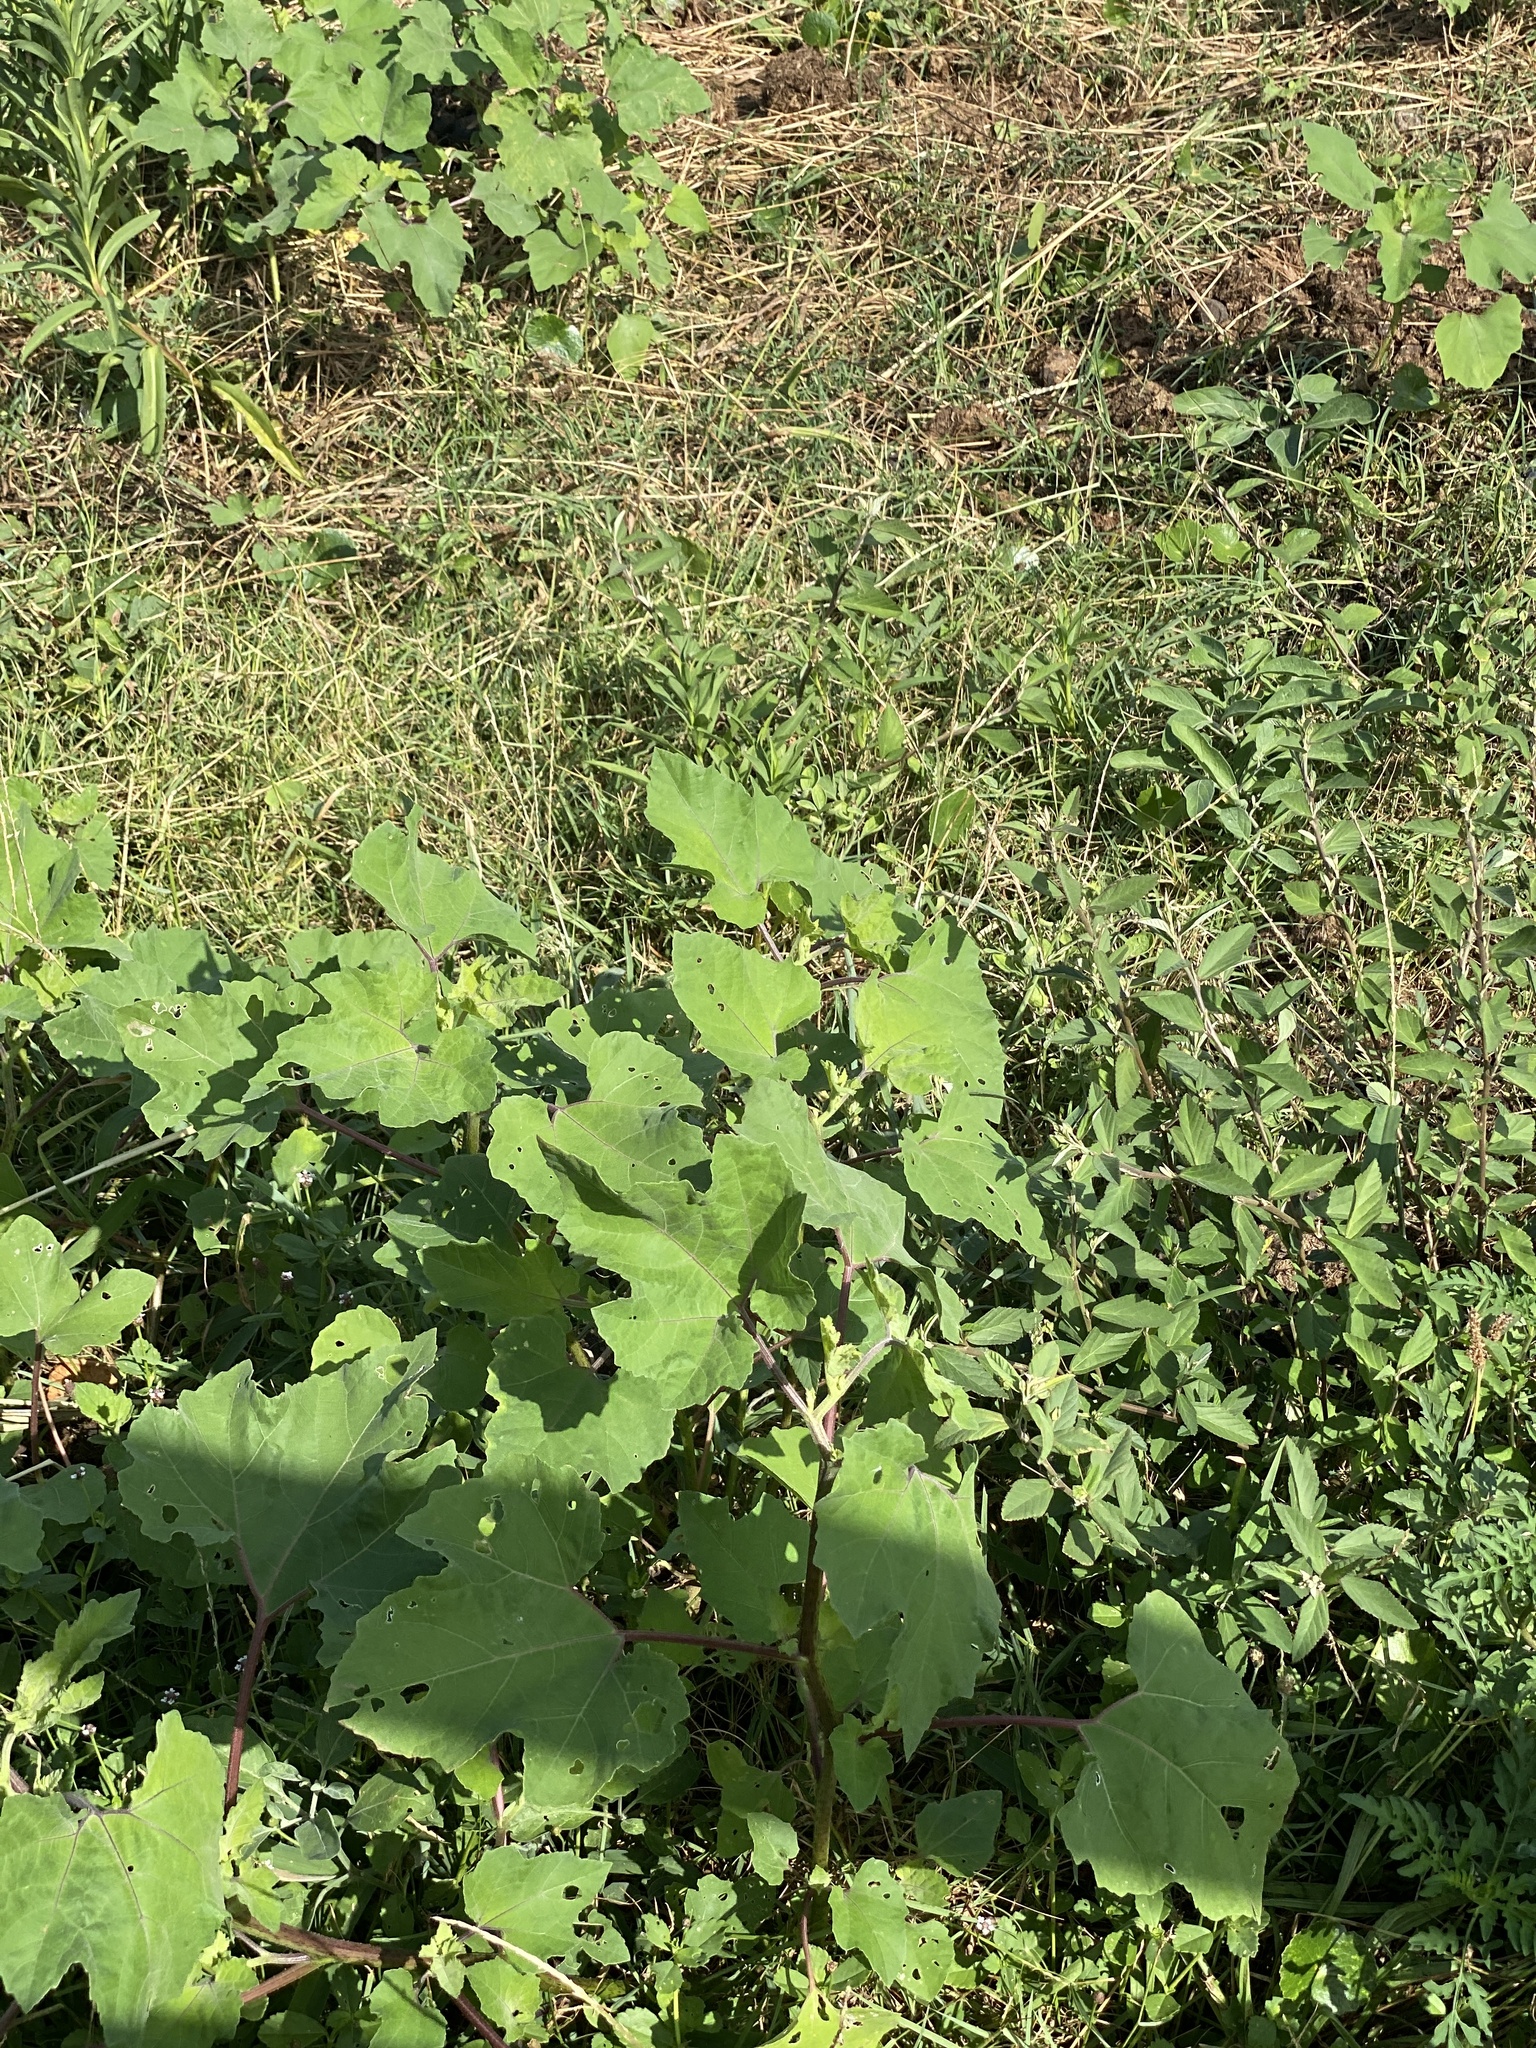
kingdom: Plantae
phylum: Tracheophyta
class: Magnoliopsida
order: Asterales
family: Asteraceae
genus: Xanthium
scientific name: Xanthium strumarium
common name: Rough cocklebur
